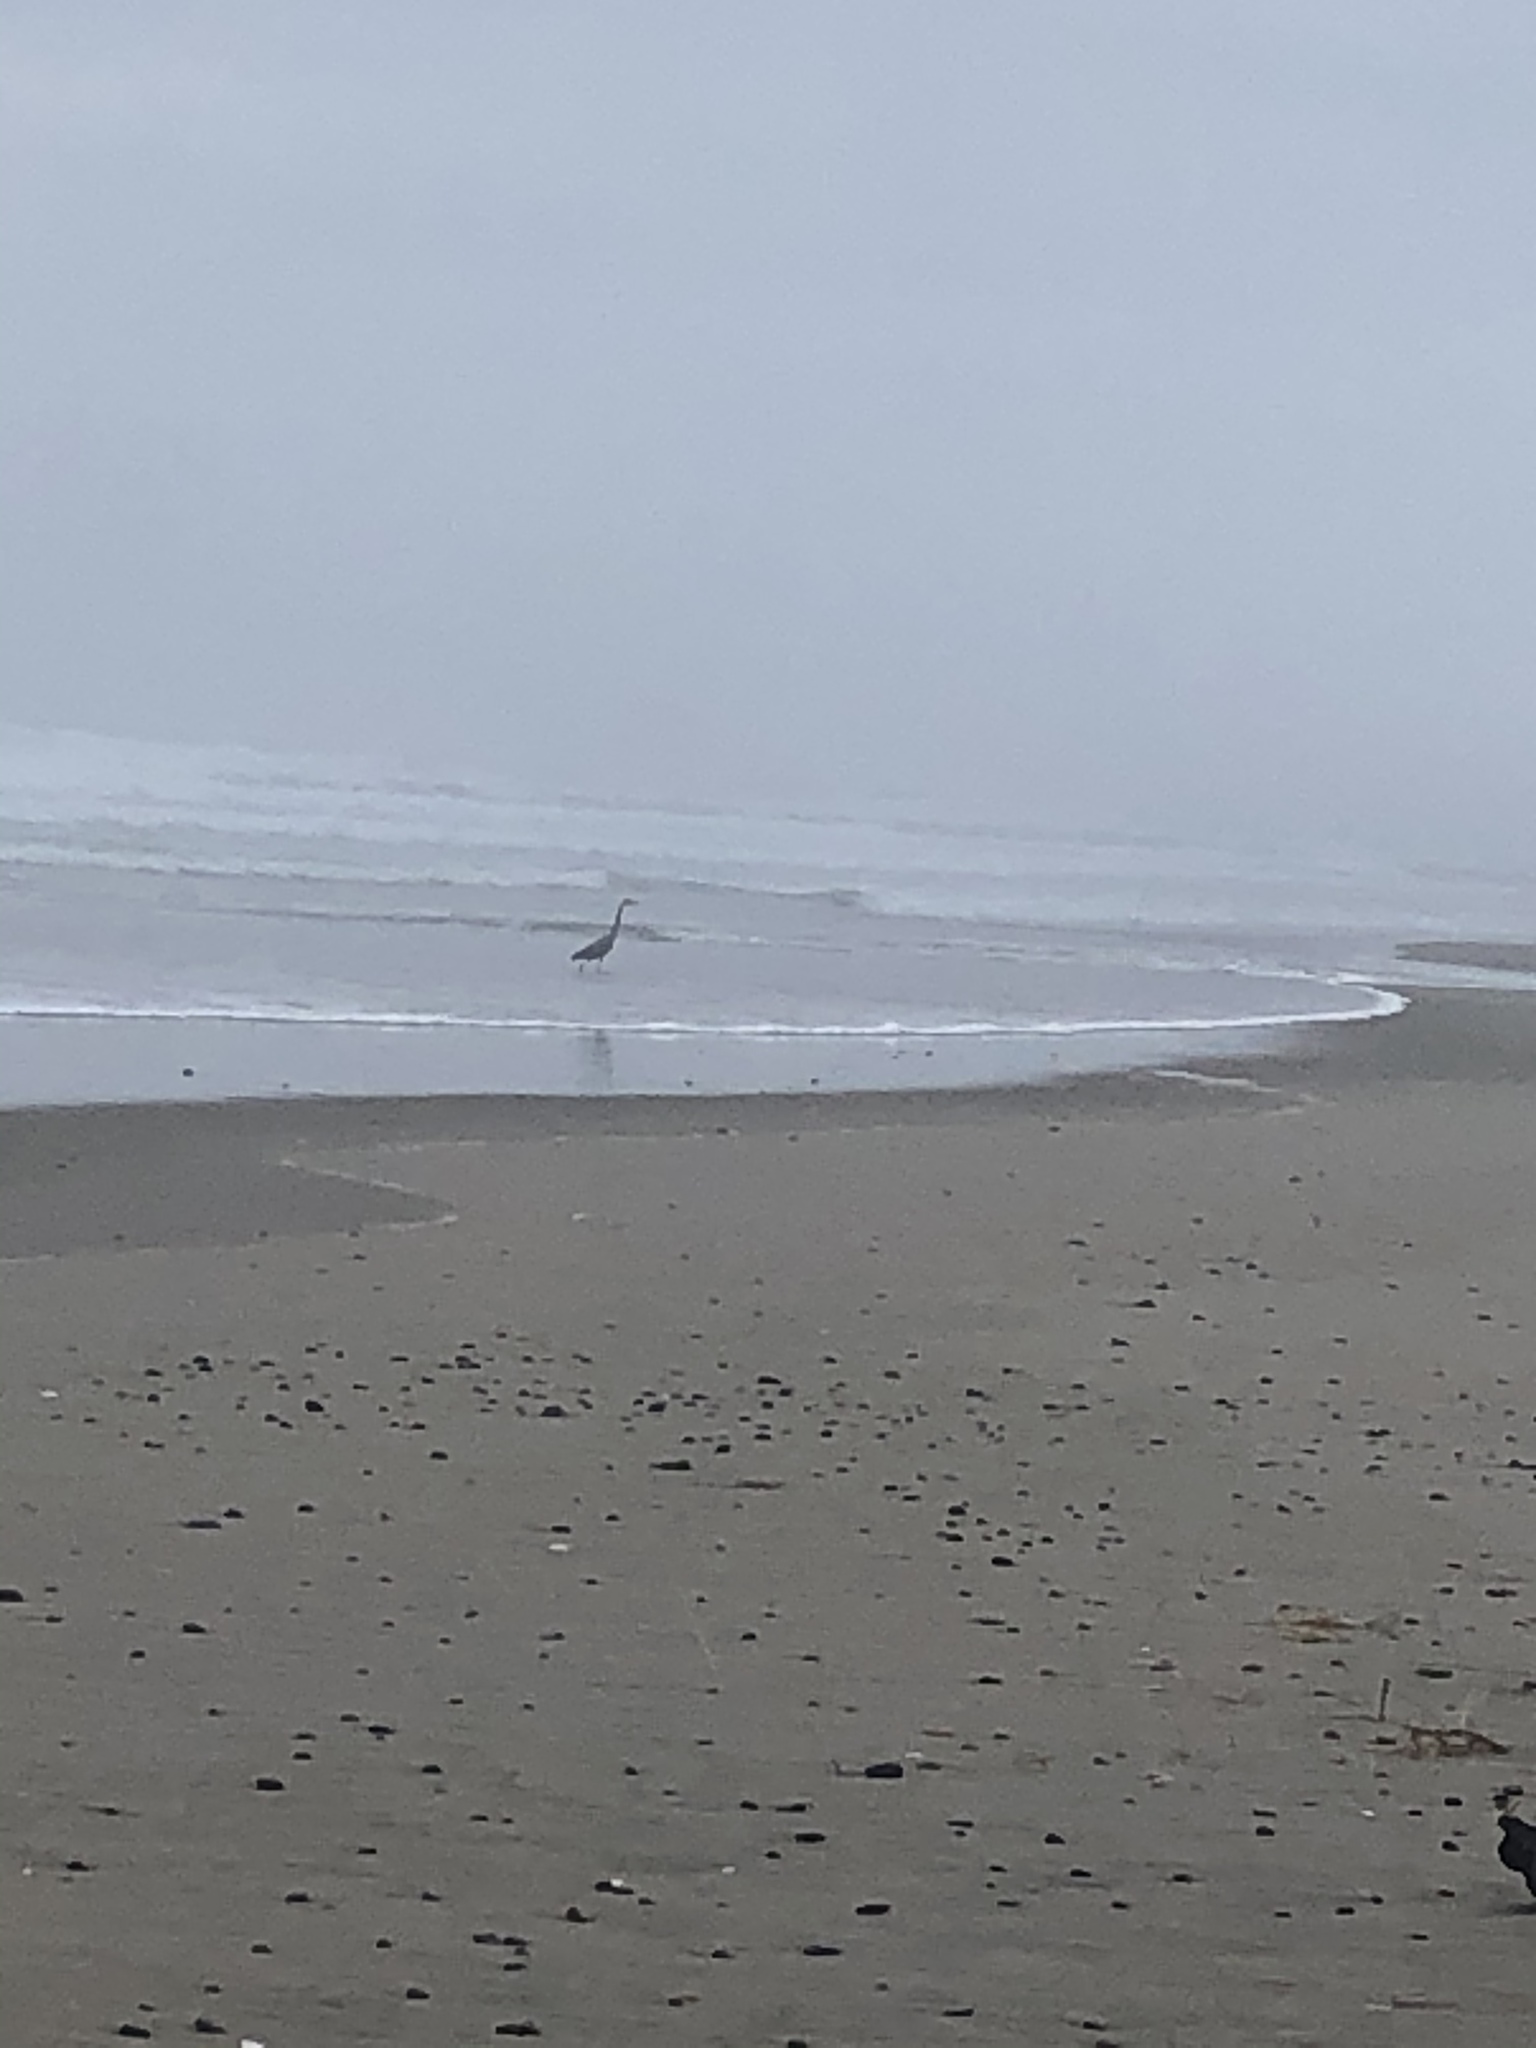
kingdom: Animalia
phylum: Chordata
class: Aves
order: Pelecaniformes
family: Ardeidae
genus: Ardea
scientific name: Ardea herodias
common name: Great blue heron
